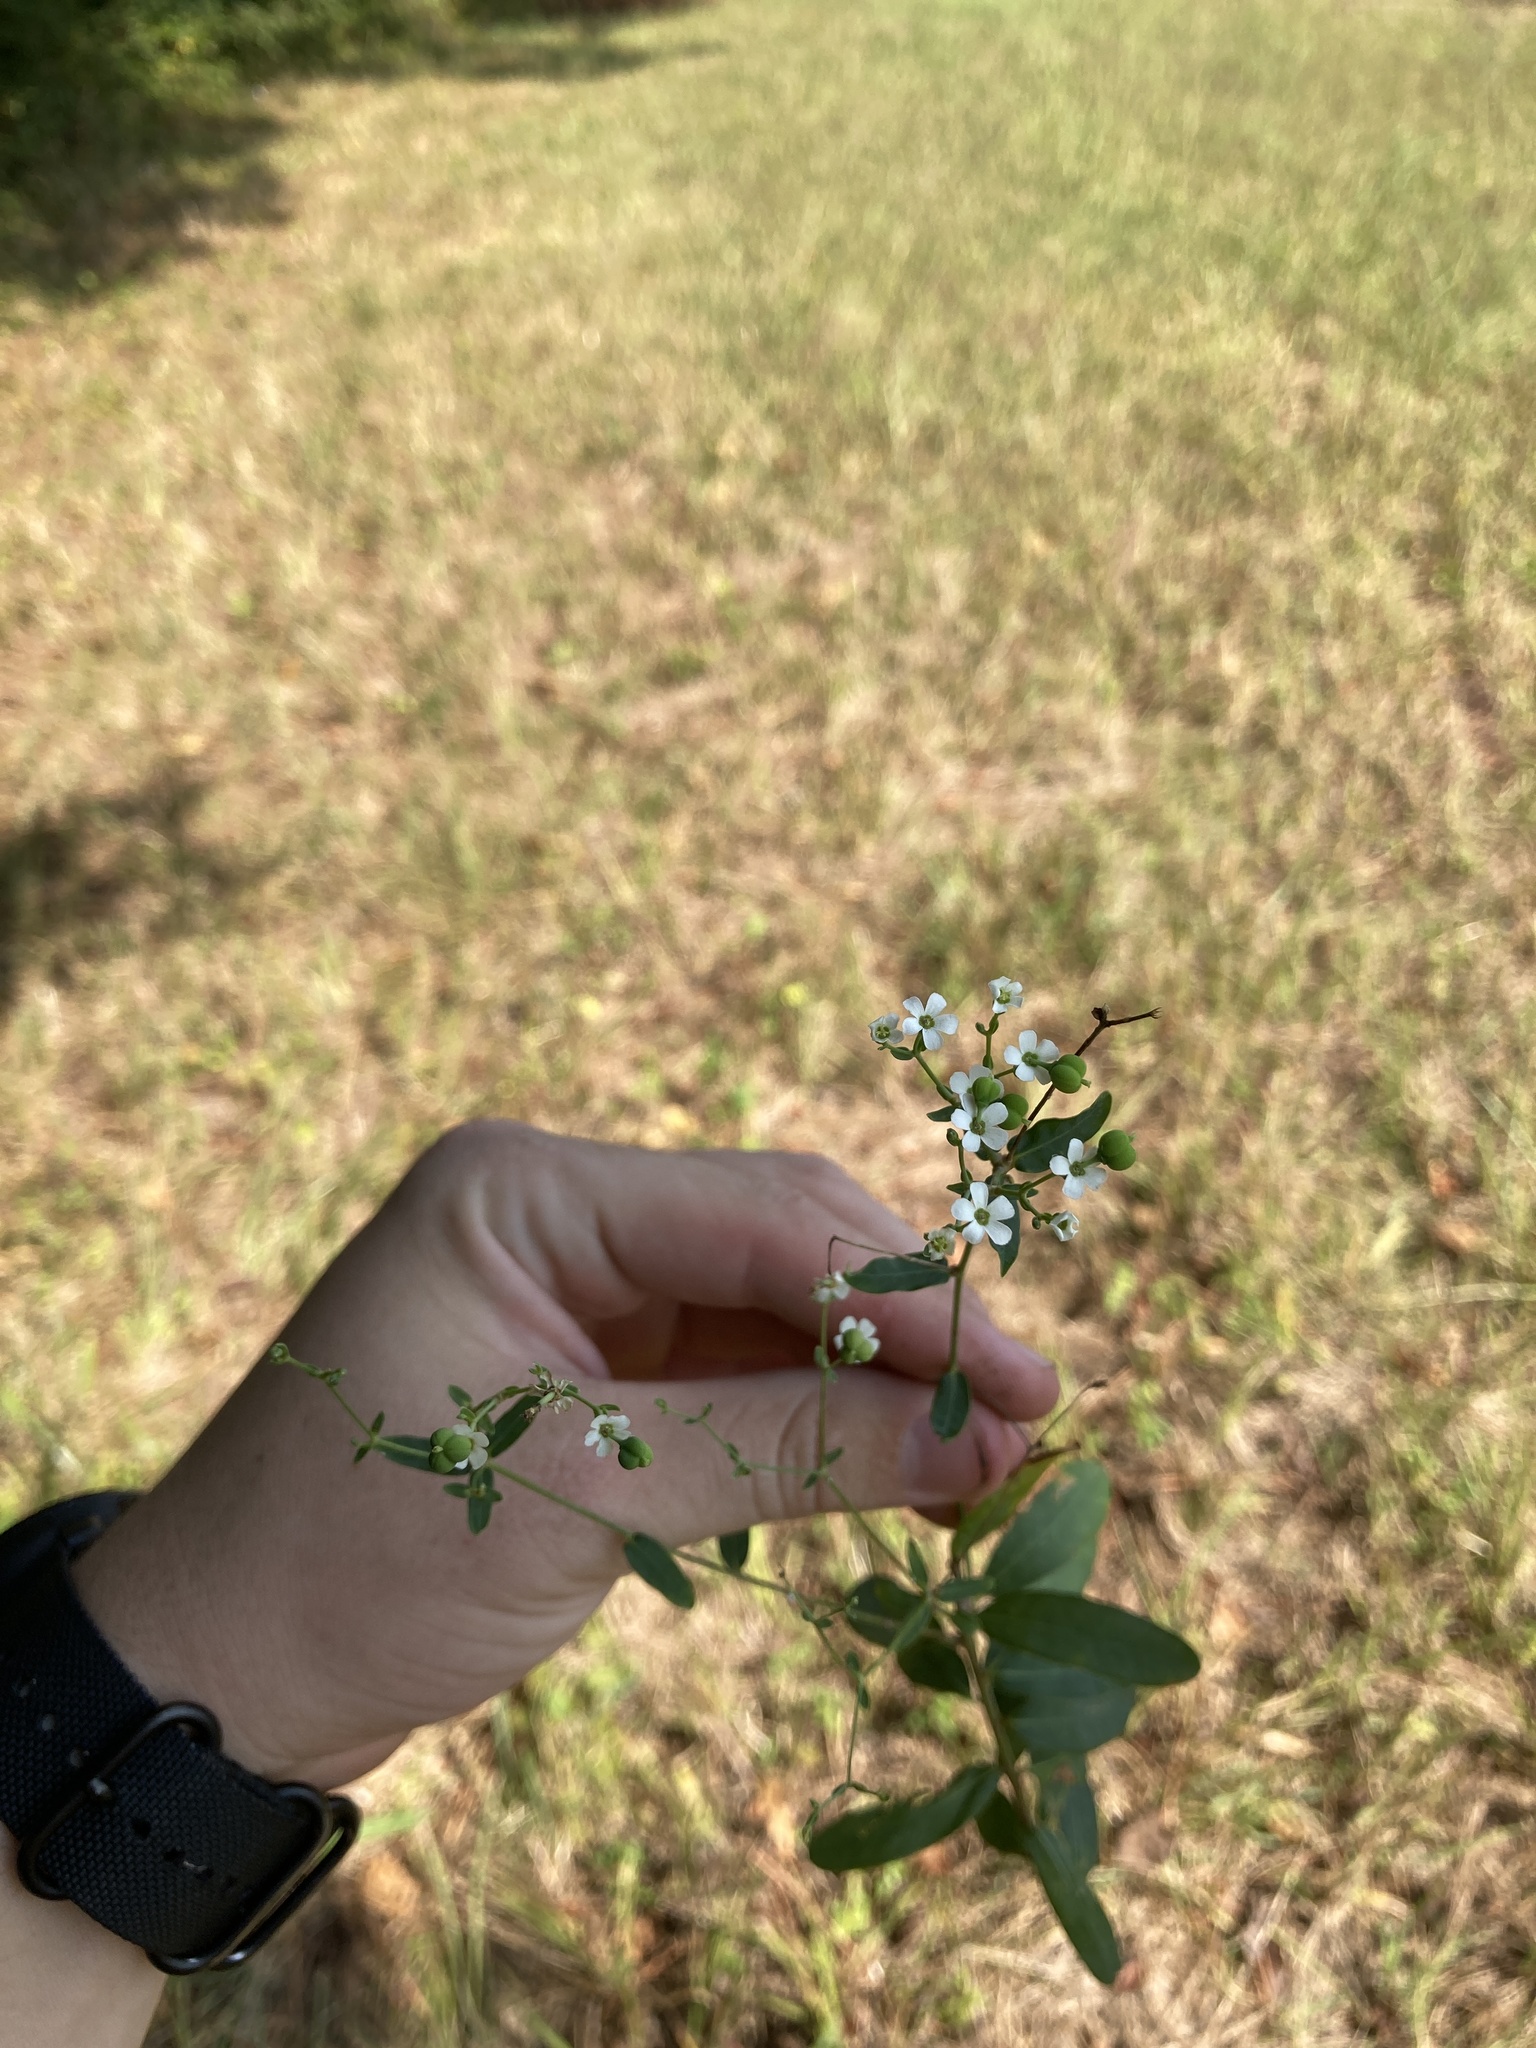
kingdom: Plantae
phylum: Tracheophyta
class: Magnoliopsida
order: Malpighiales
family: Euphorbiaceae
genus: Euphorbia
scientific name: Euphorbia corollata
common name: Flowering spurge
